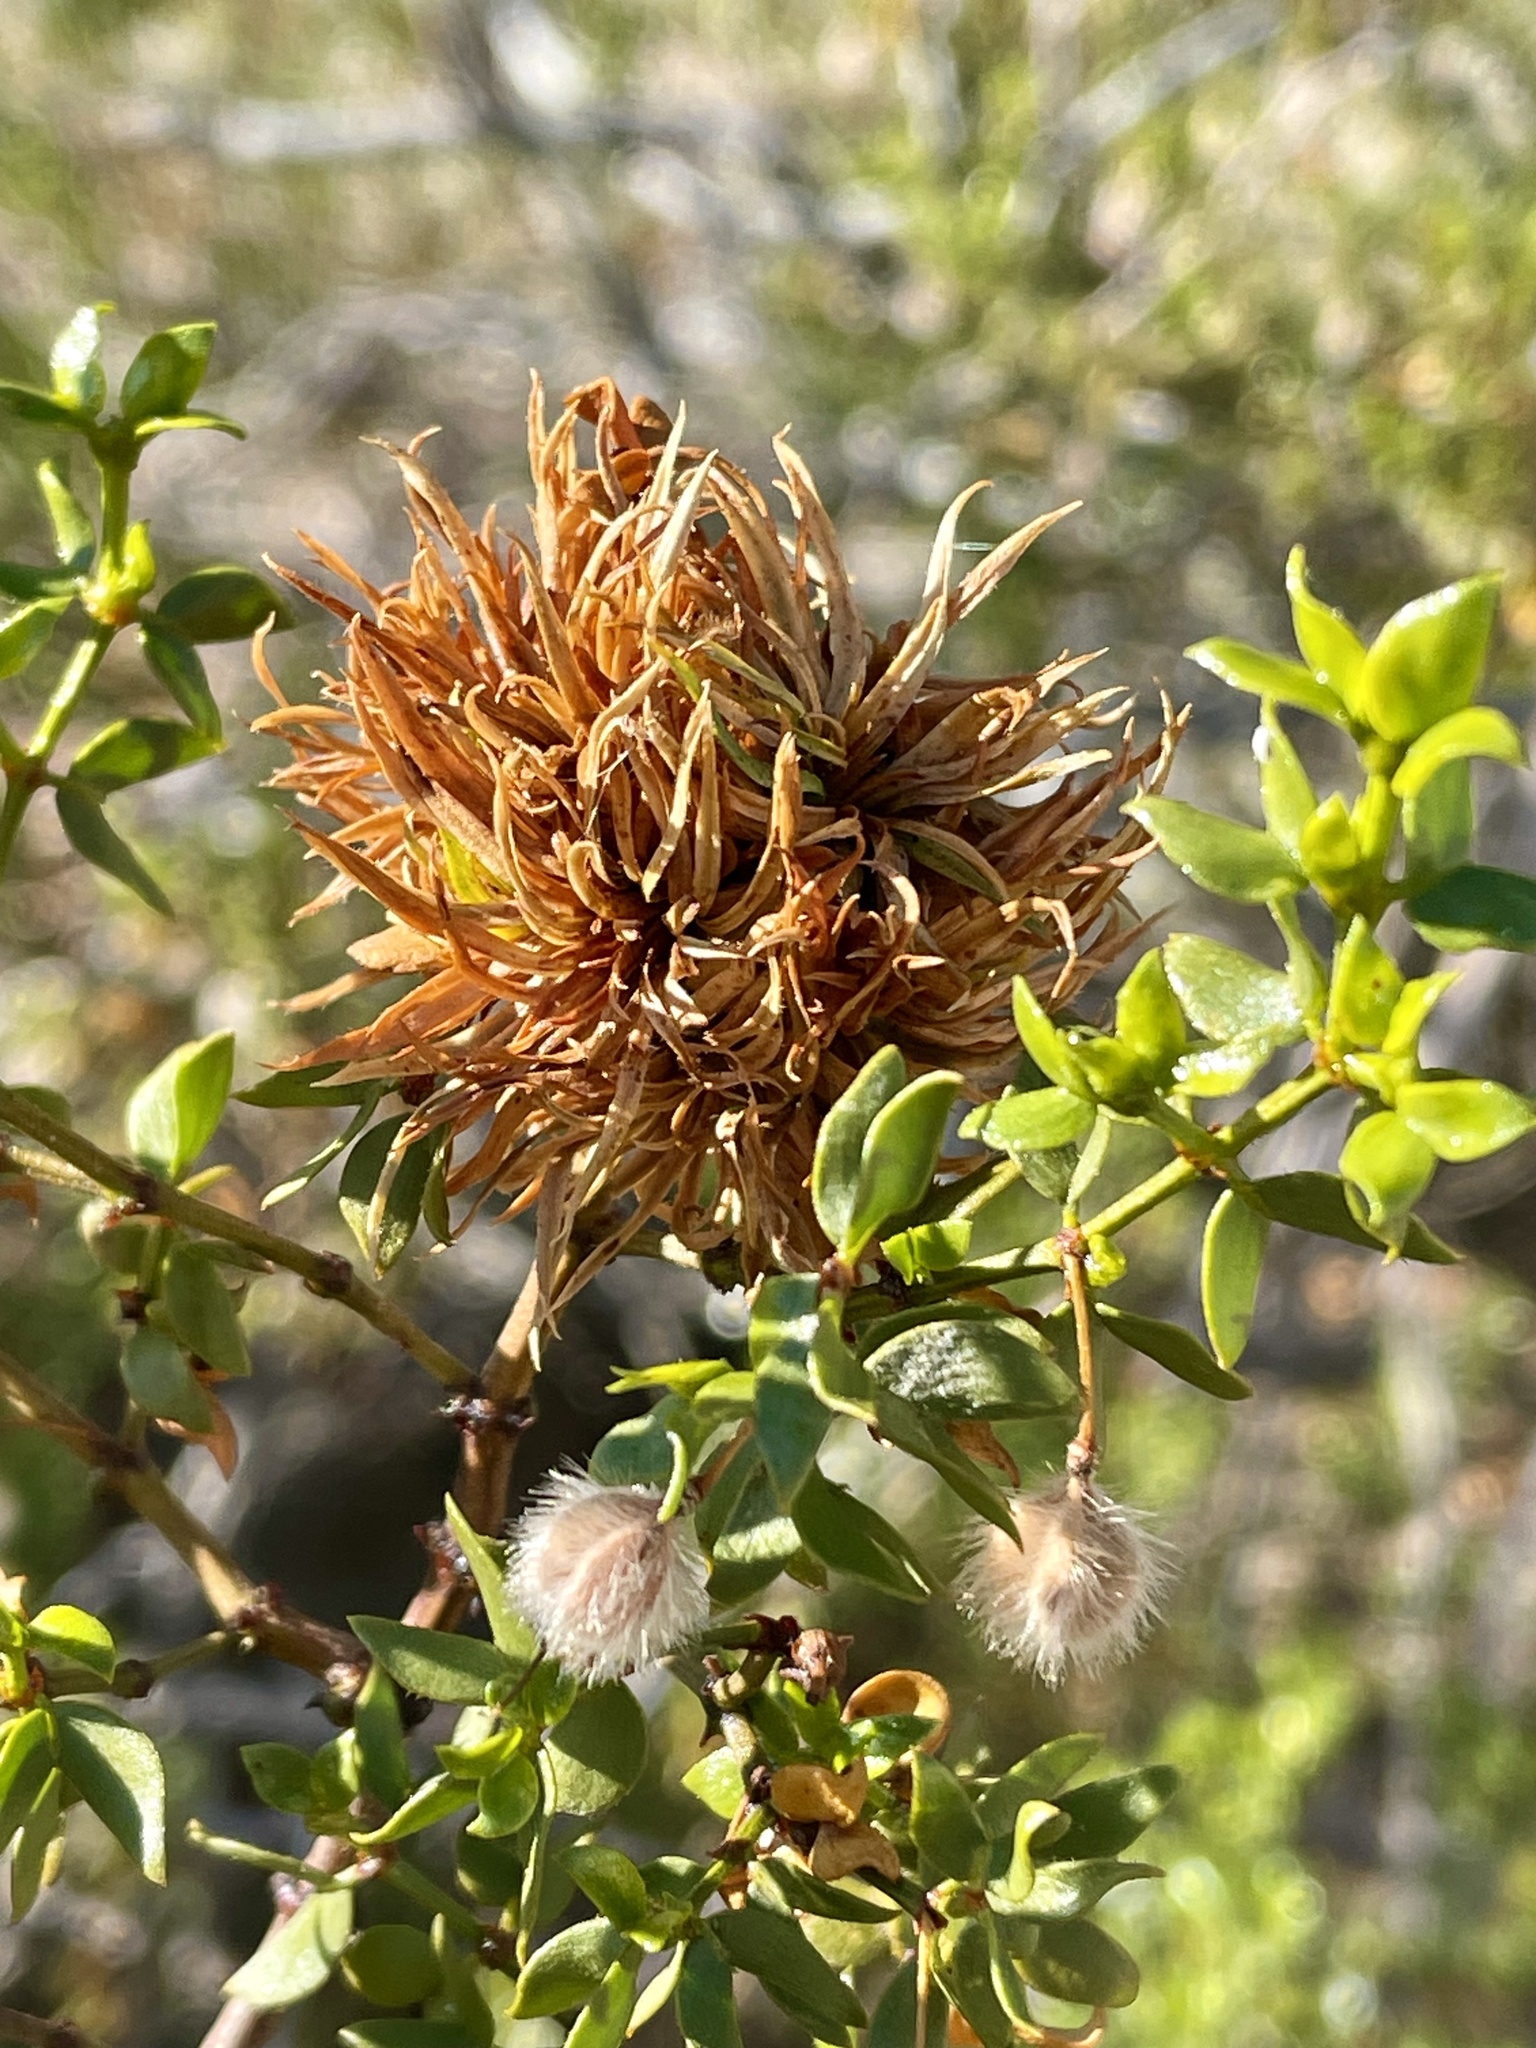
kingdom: Animalia
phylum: Arthropoda
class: Insecta
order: Diptera
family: Cecidomyiidae
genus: Asphondylia
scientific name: Asphondylia auripila
